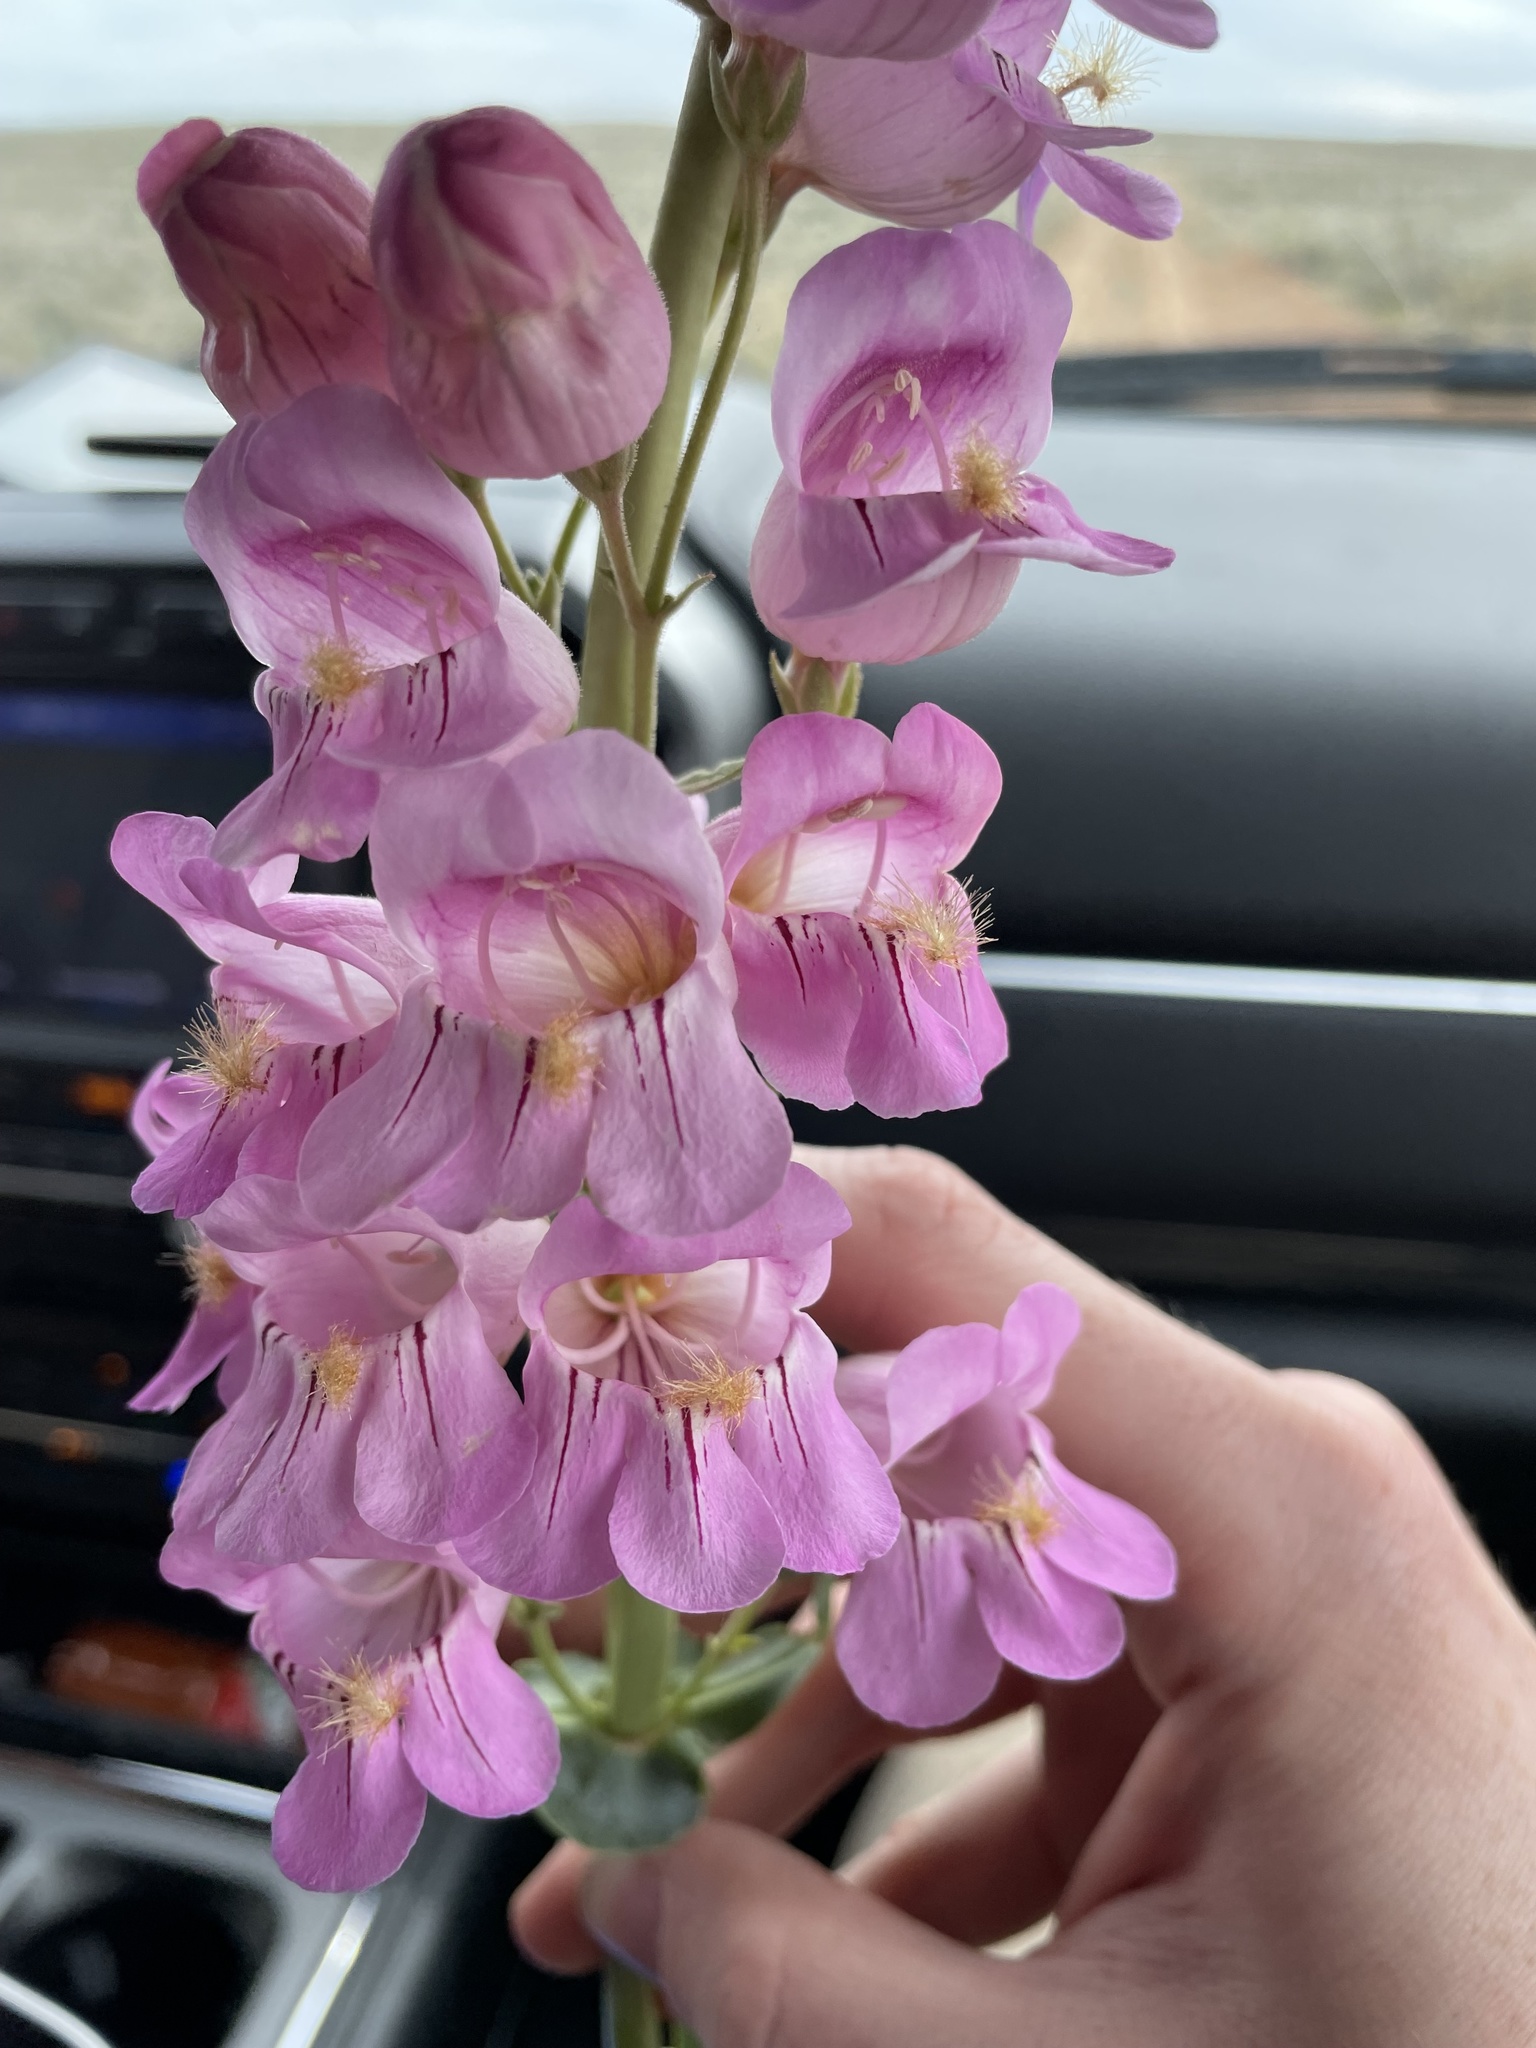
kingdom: Plantae
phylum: Tracheophyta
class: Magnoliopsida
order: Lamiales
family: Plantaginaceae
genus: Penstemon
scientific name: Penstemon palmeri
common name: Palmer penstemon
